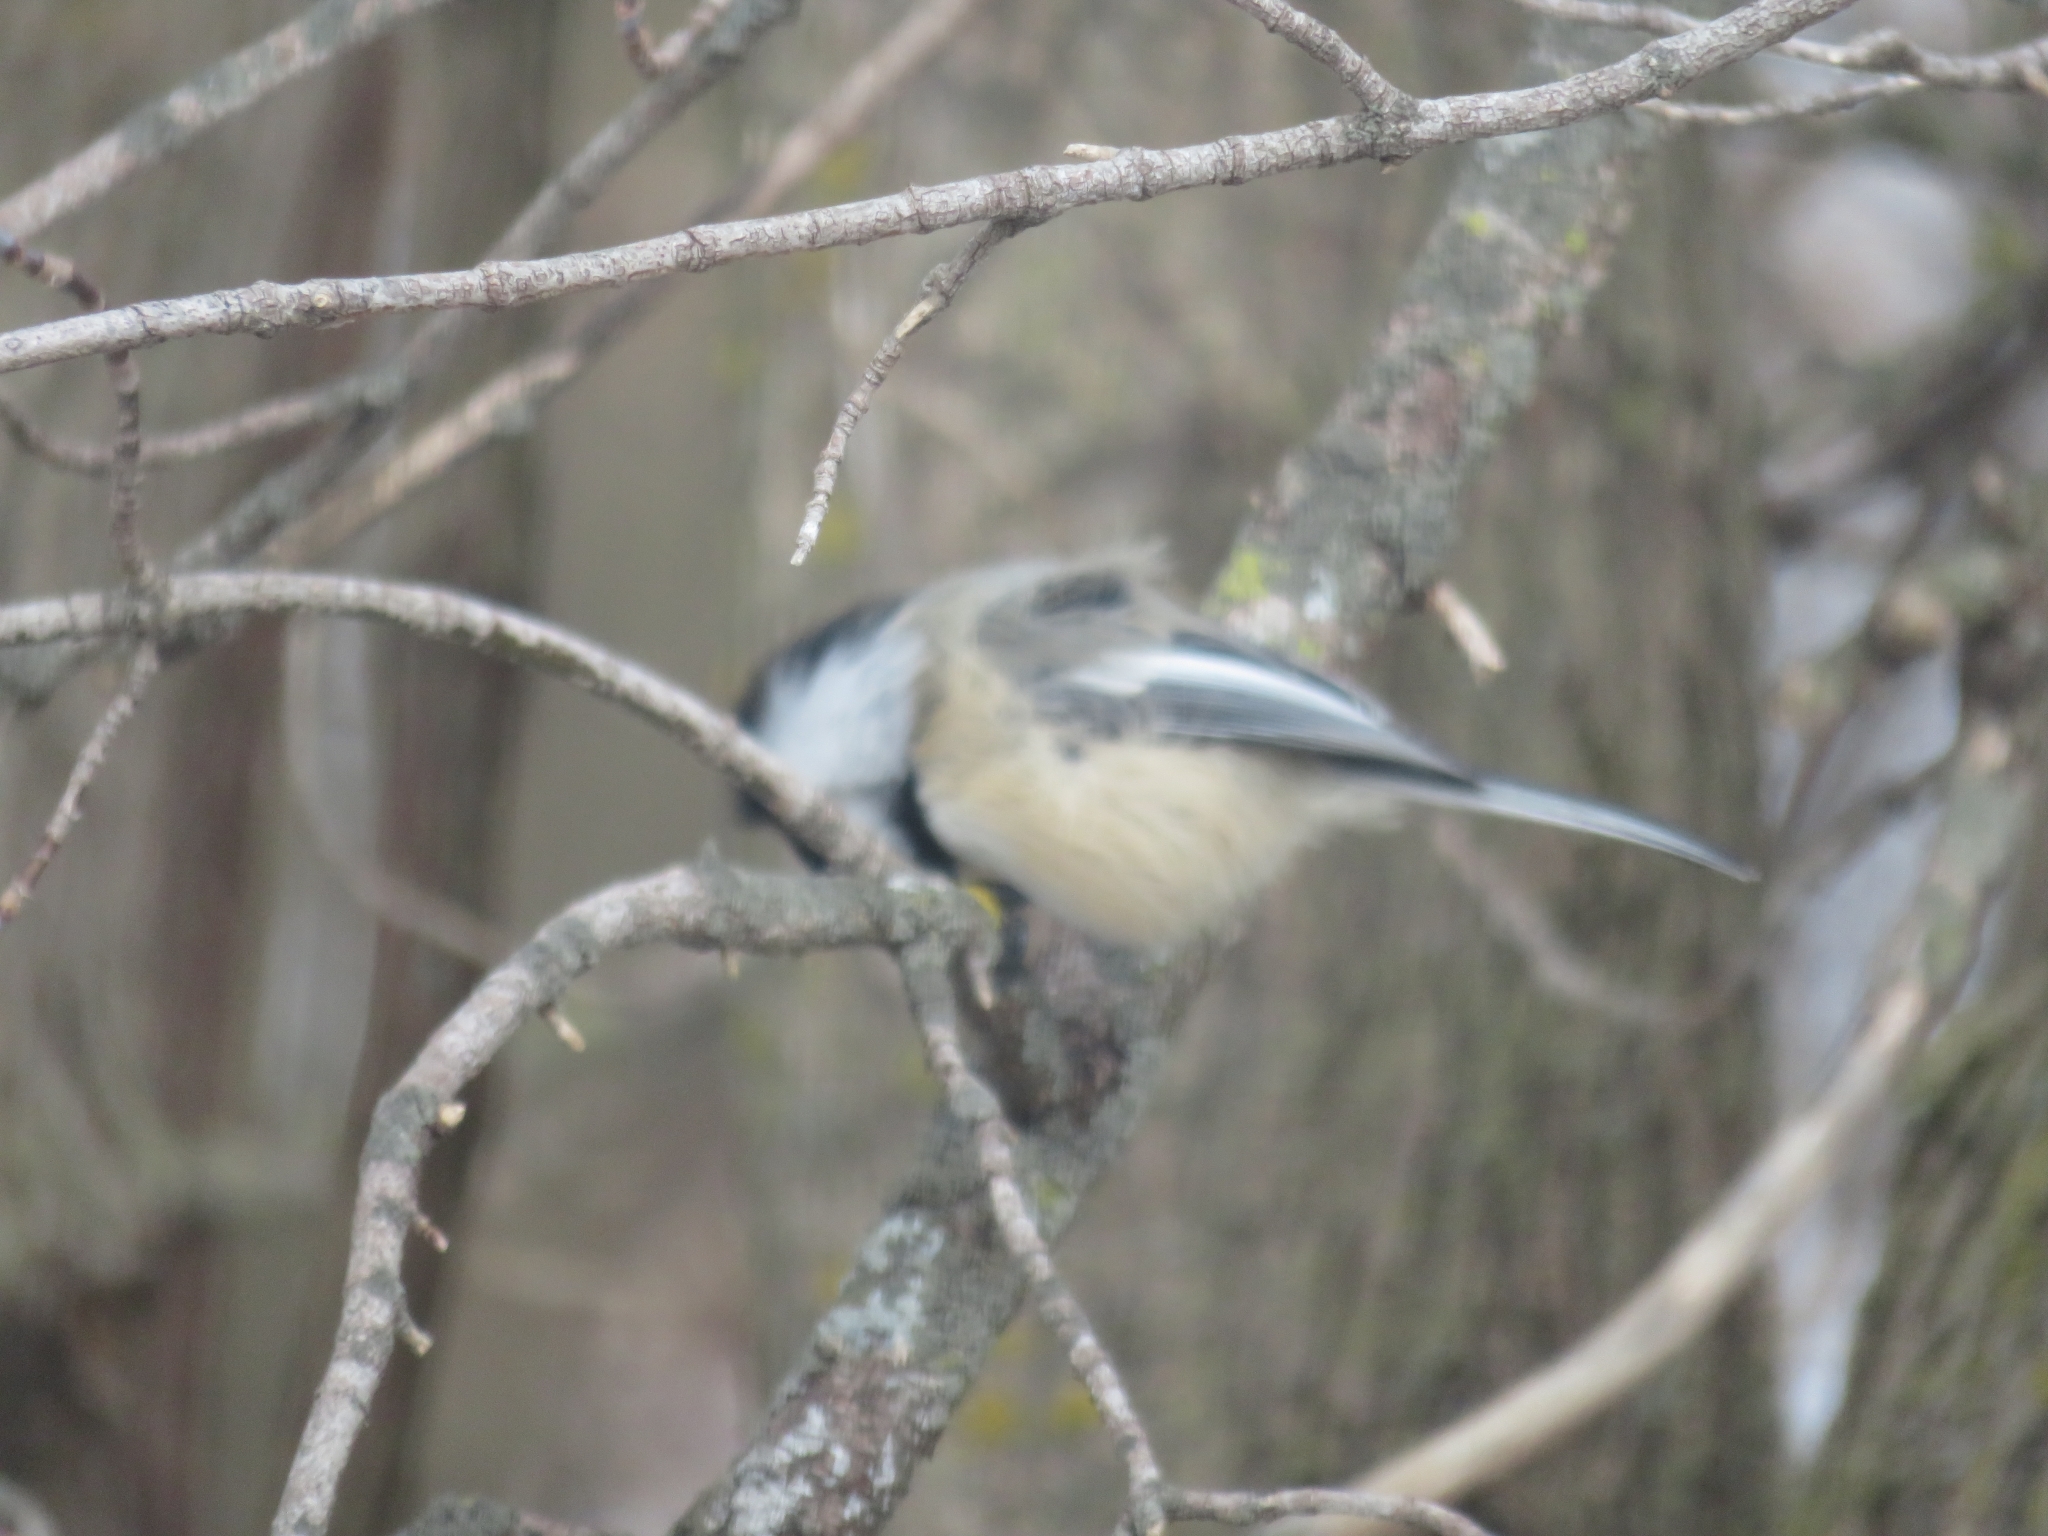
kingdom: Animalia
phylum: Chordata
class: Aves
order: Passeriformes
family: Paridae
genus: Poecile
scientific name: Poecile atricapillus
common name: Black-capped chickadee
